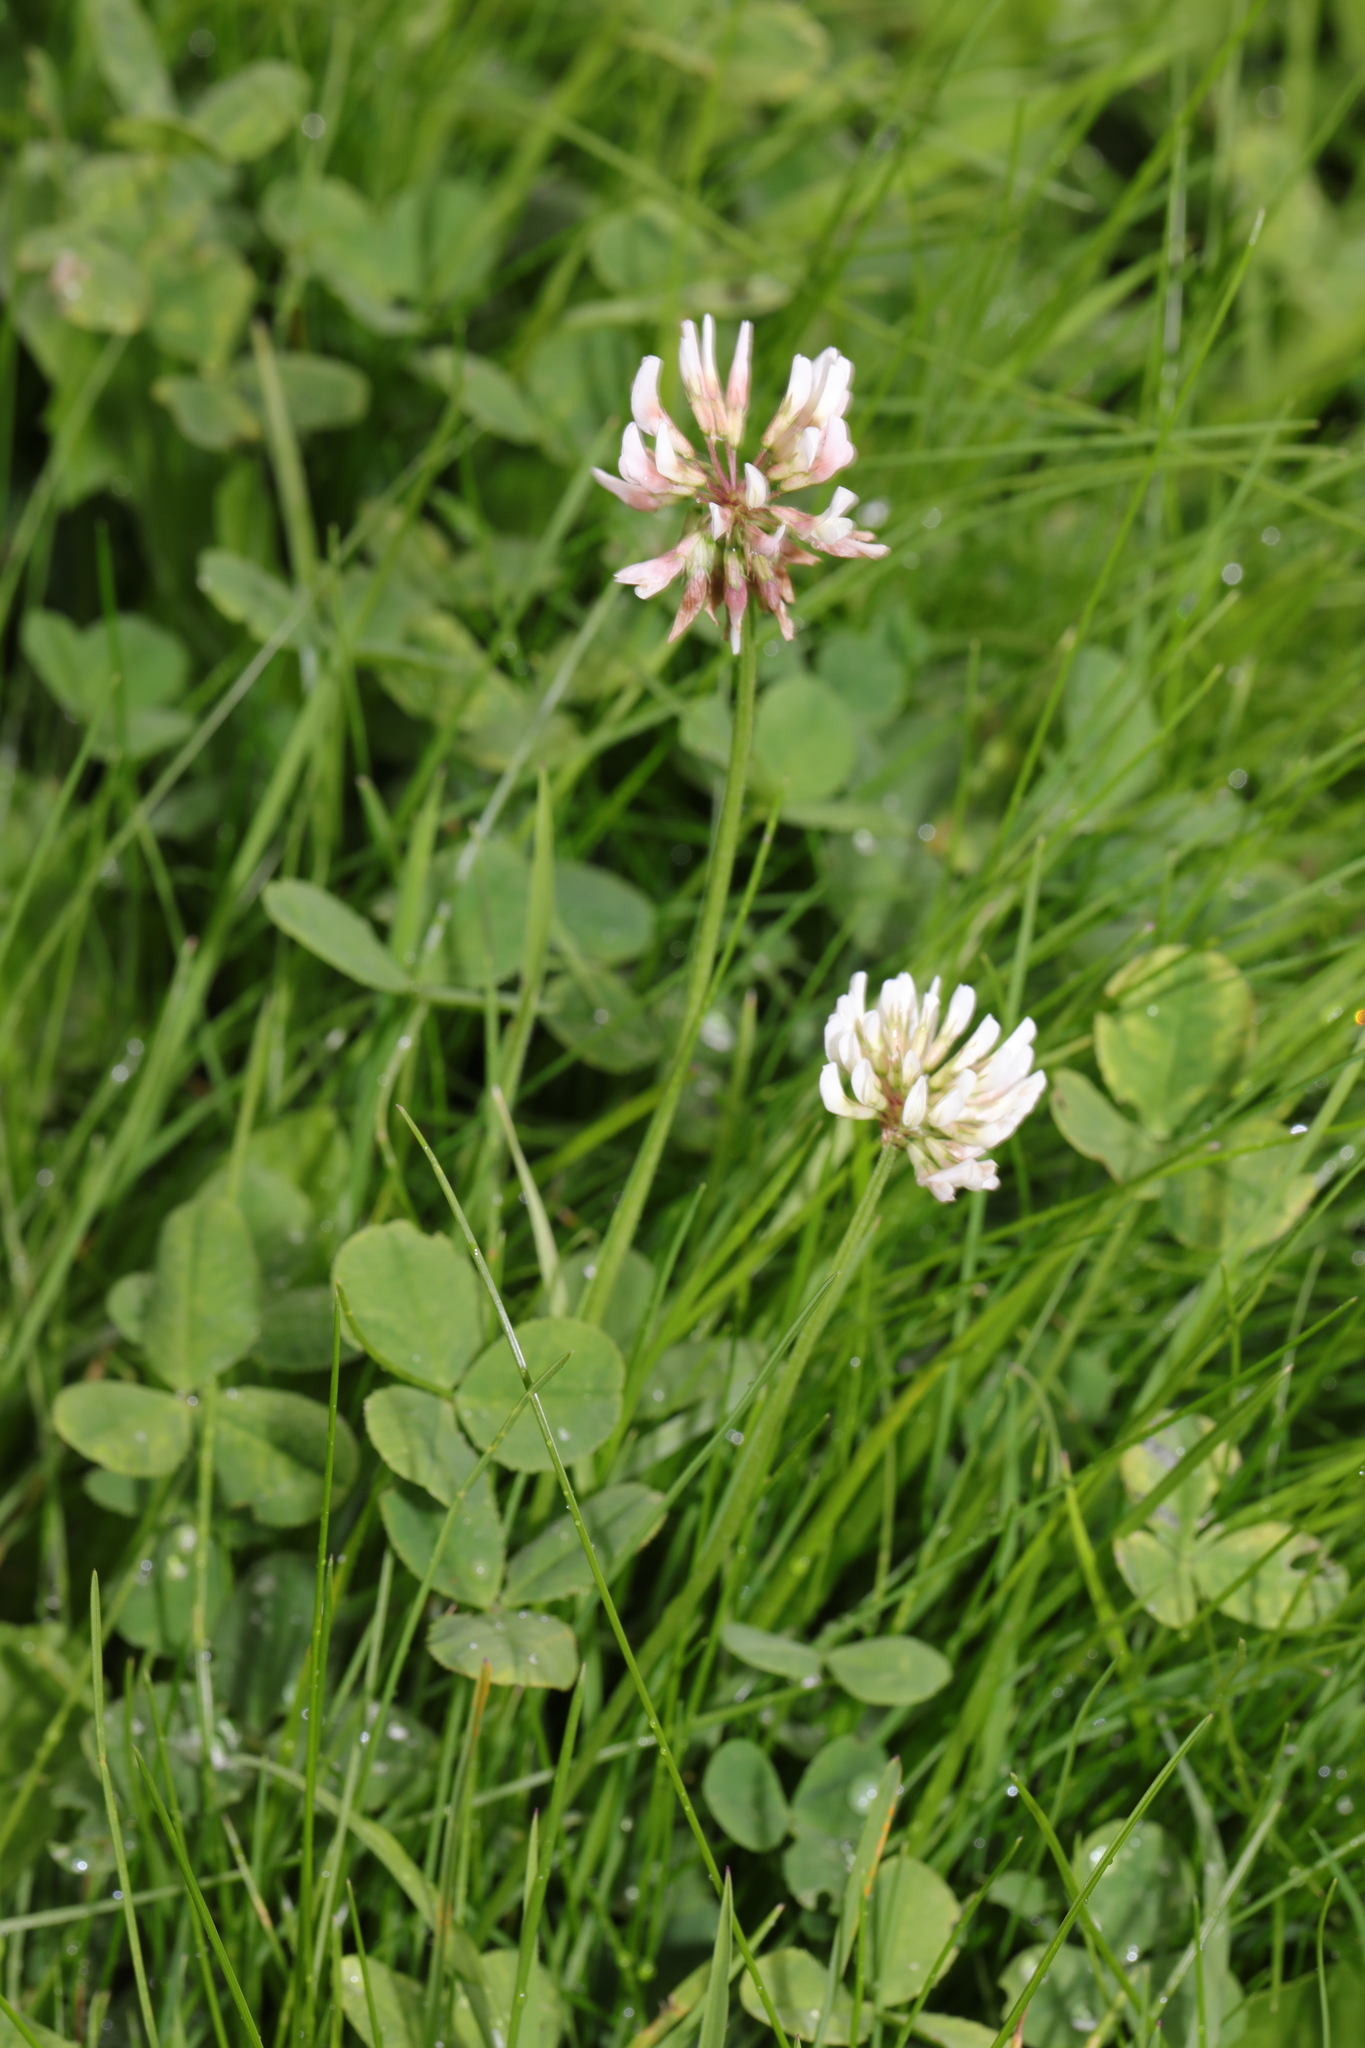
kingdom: Plantae
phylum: Tracheophyta
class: Magnoliopsida
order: Fabales
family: Fabaceae
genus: Trifolium
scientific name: Trifolium repens
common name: White clover
